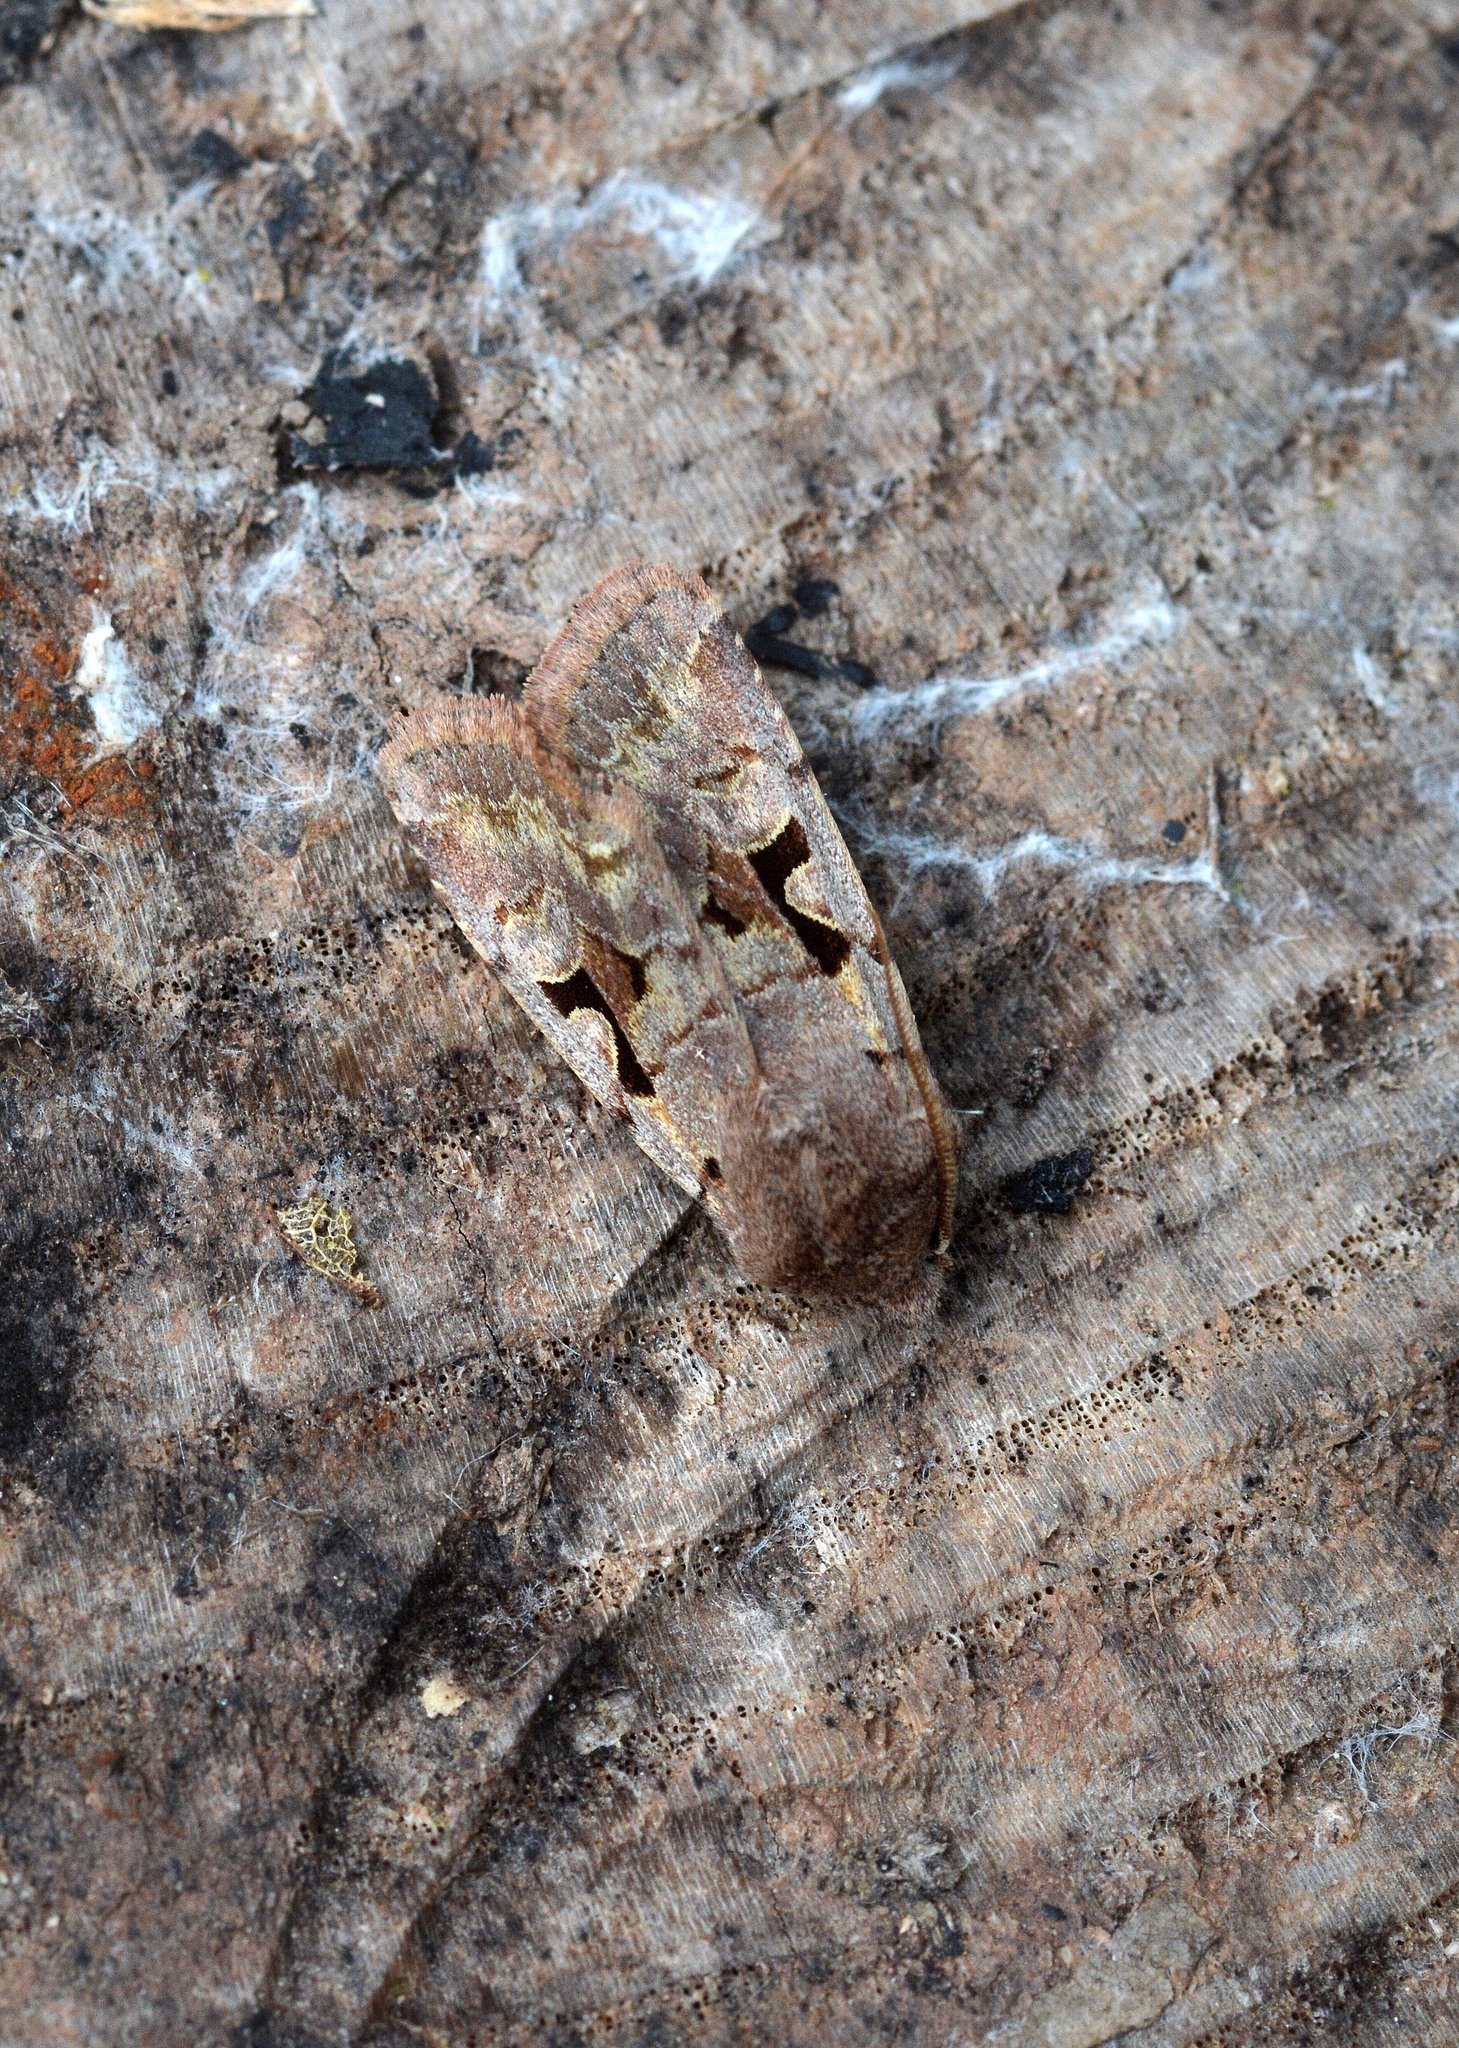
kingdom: Animalia
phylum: Arthropoda
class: Insecta
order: Lepidoptera
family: Noctuidae
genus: Orthosia
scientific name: Orthosia gothica
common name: Hebrew character
